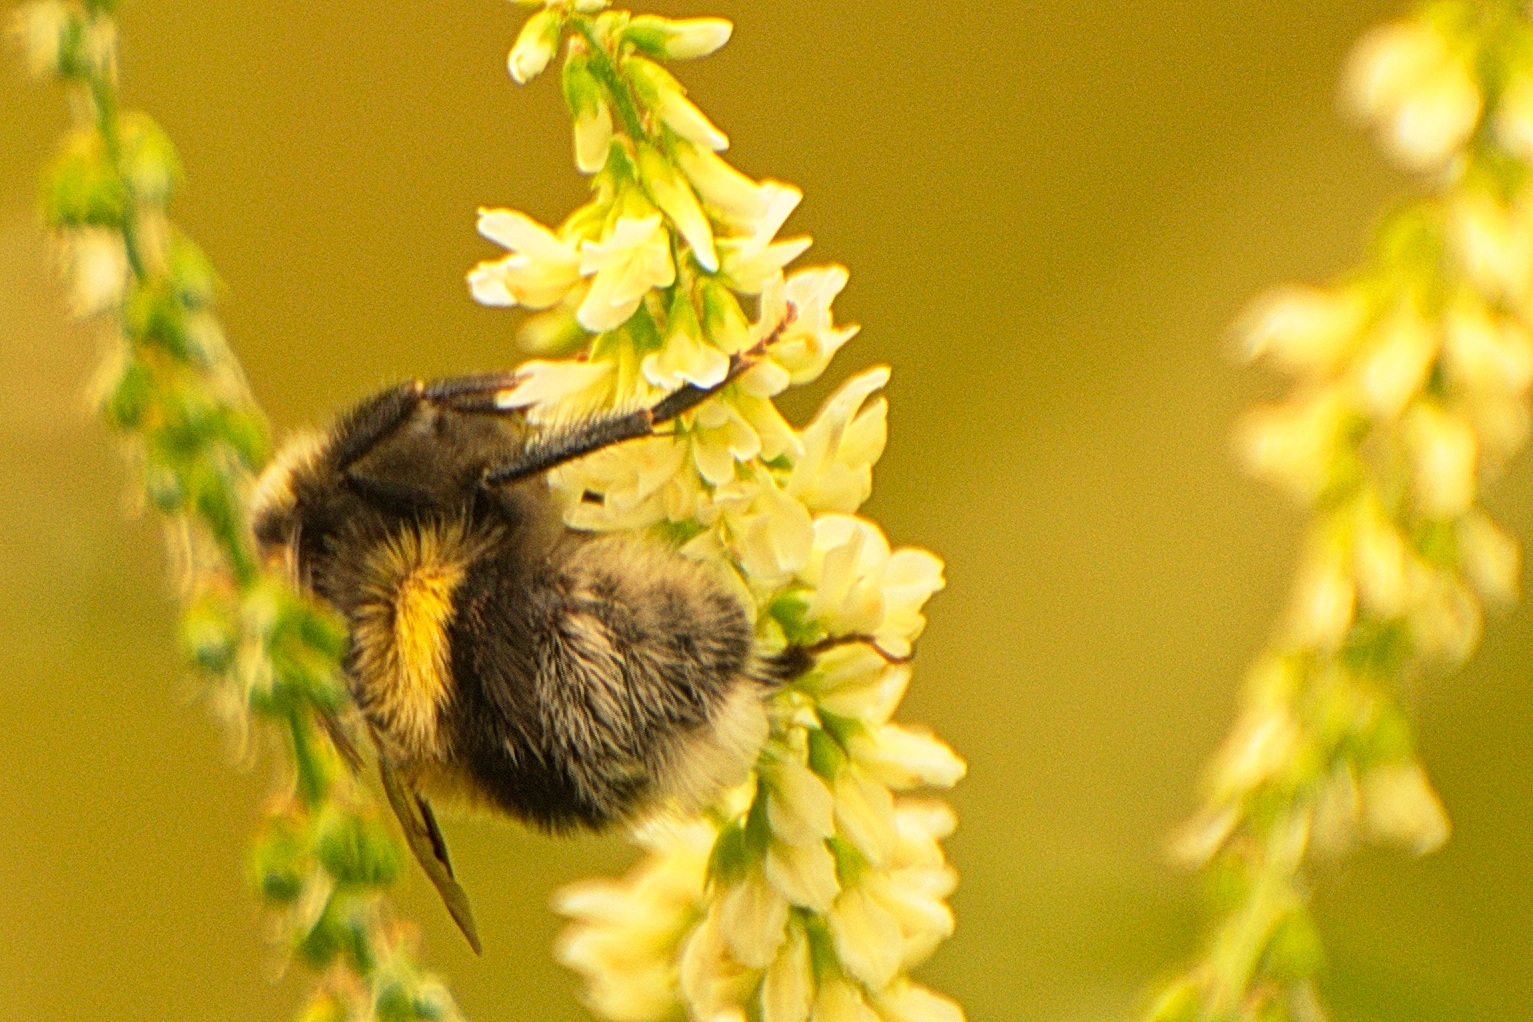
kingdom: Animalia
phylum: Arthropoda
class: Insecta
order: Hymenoptera
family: Apidae
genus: Bombus
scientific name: Bombus cryptarum
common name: Cryptic bumblebee
